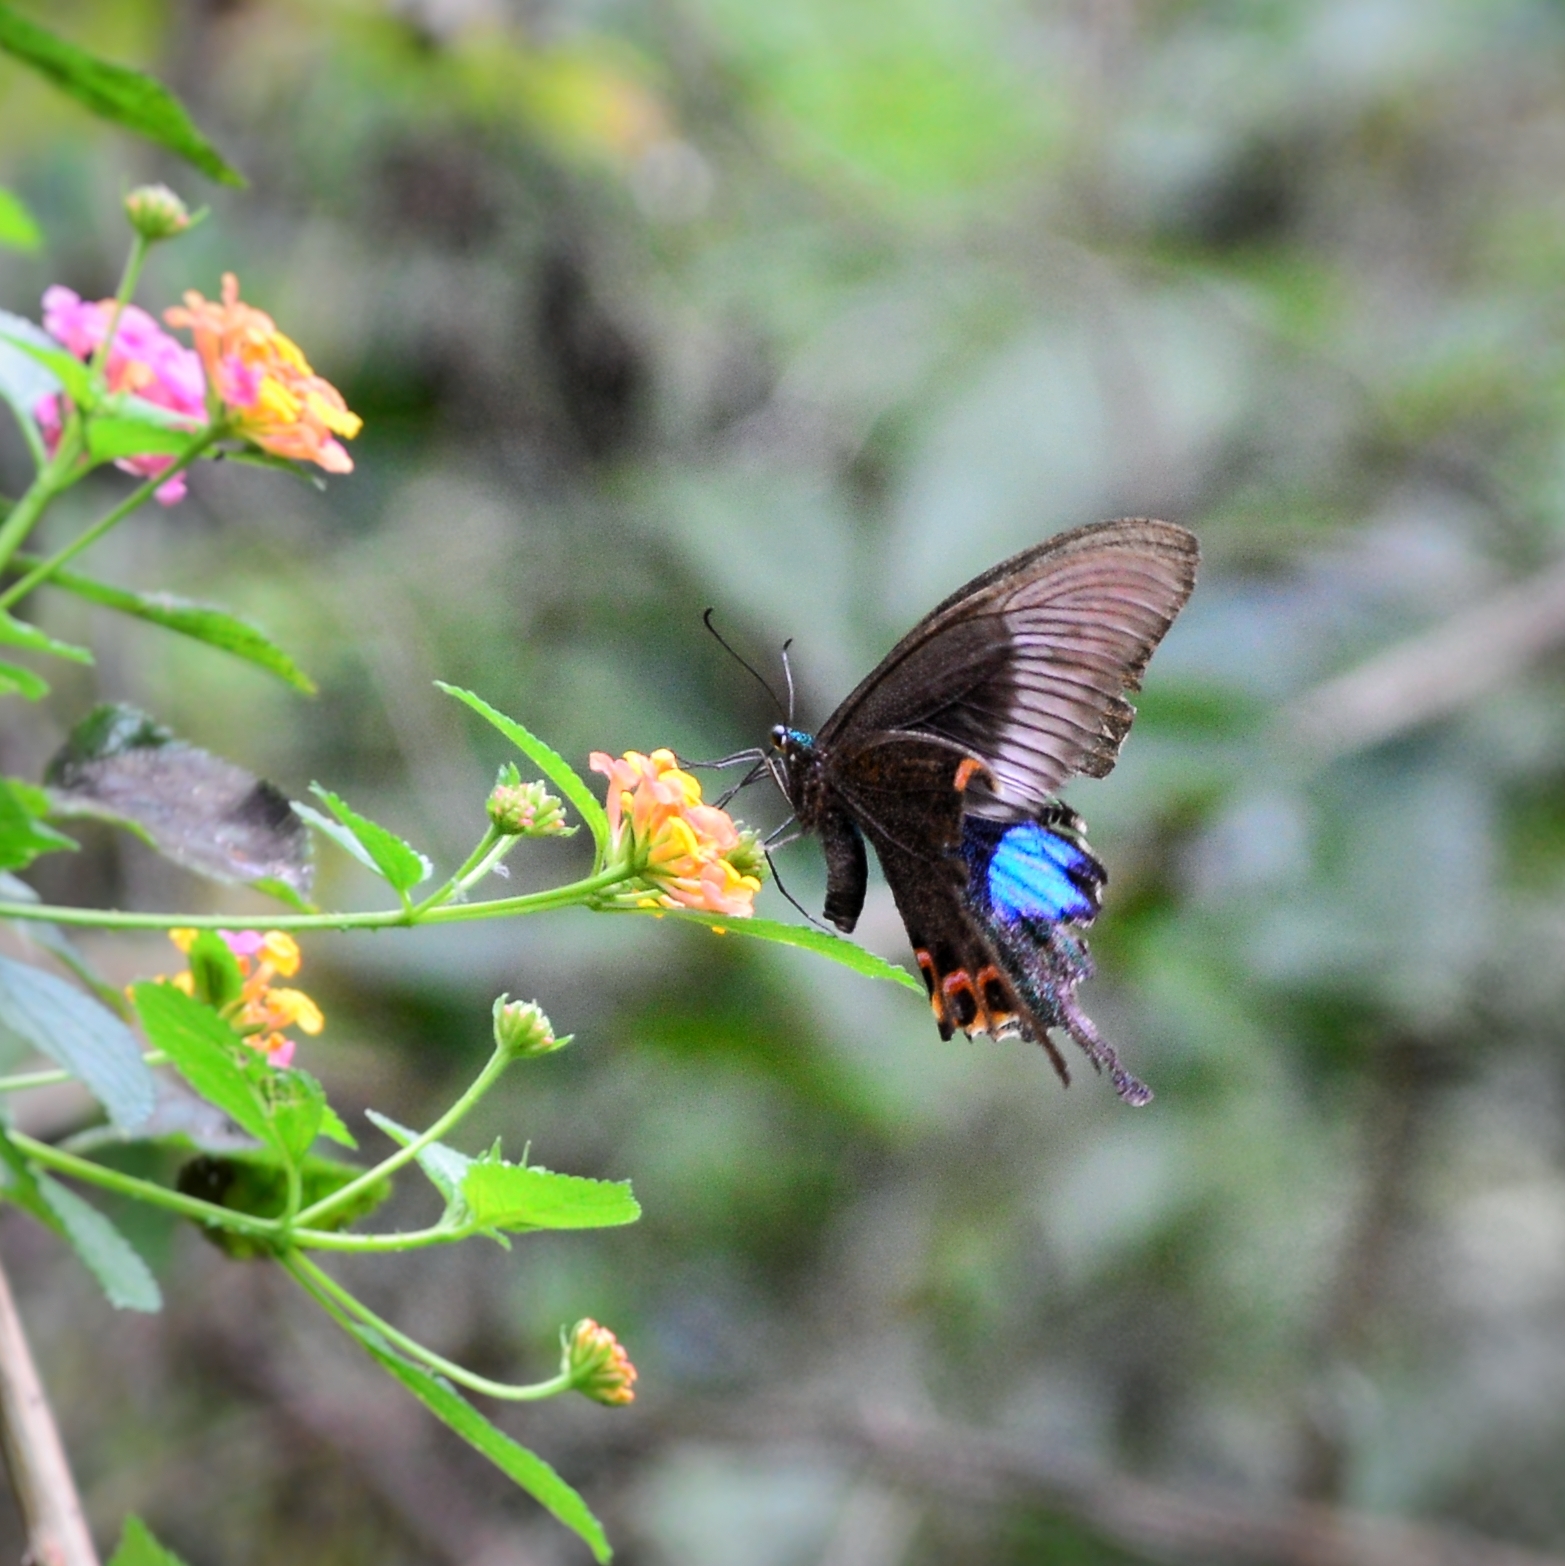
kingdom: Animalia
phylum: Arthropoda
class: Insecta
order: Lepidoptera
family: Papilionidae
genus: Papilio
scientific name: Papilio paris
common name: Paris peacock
